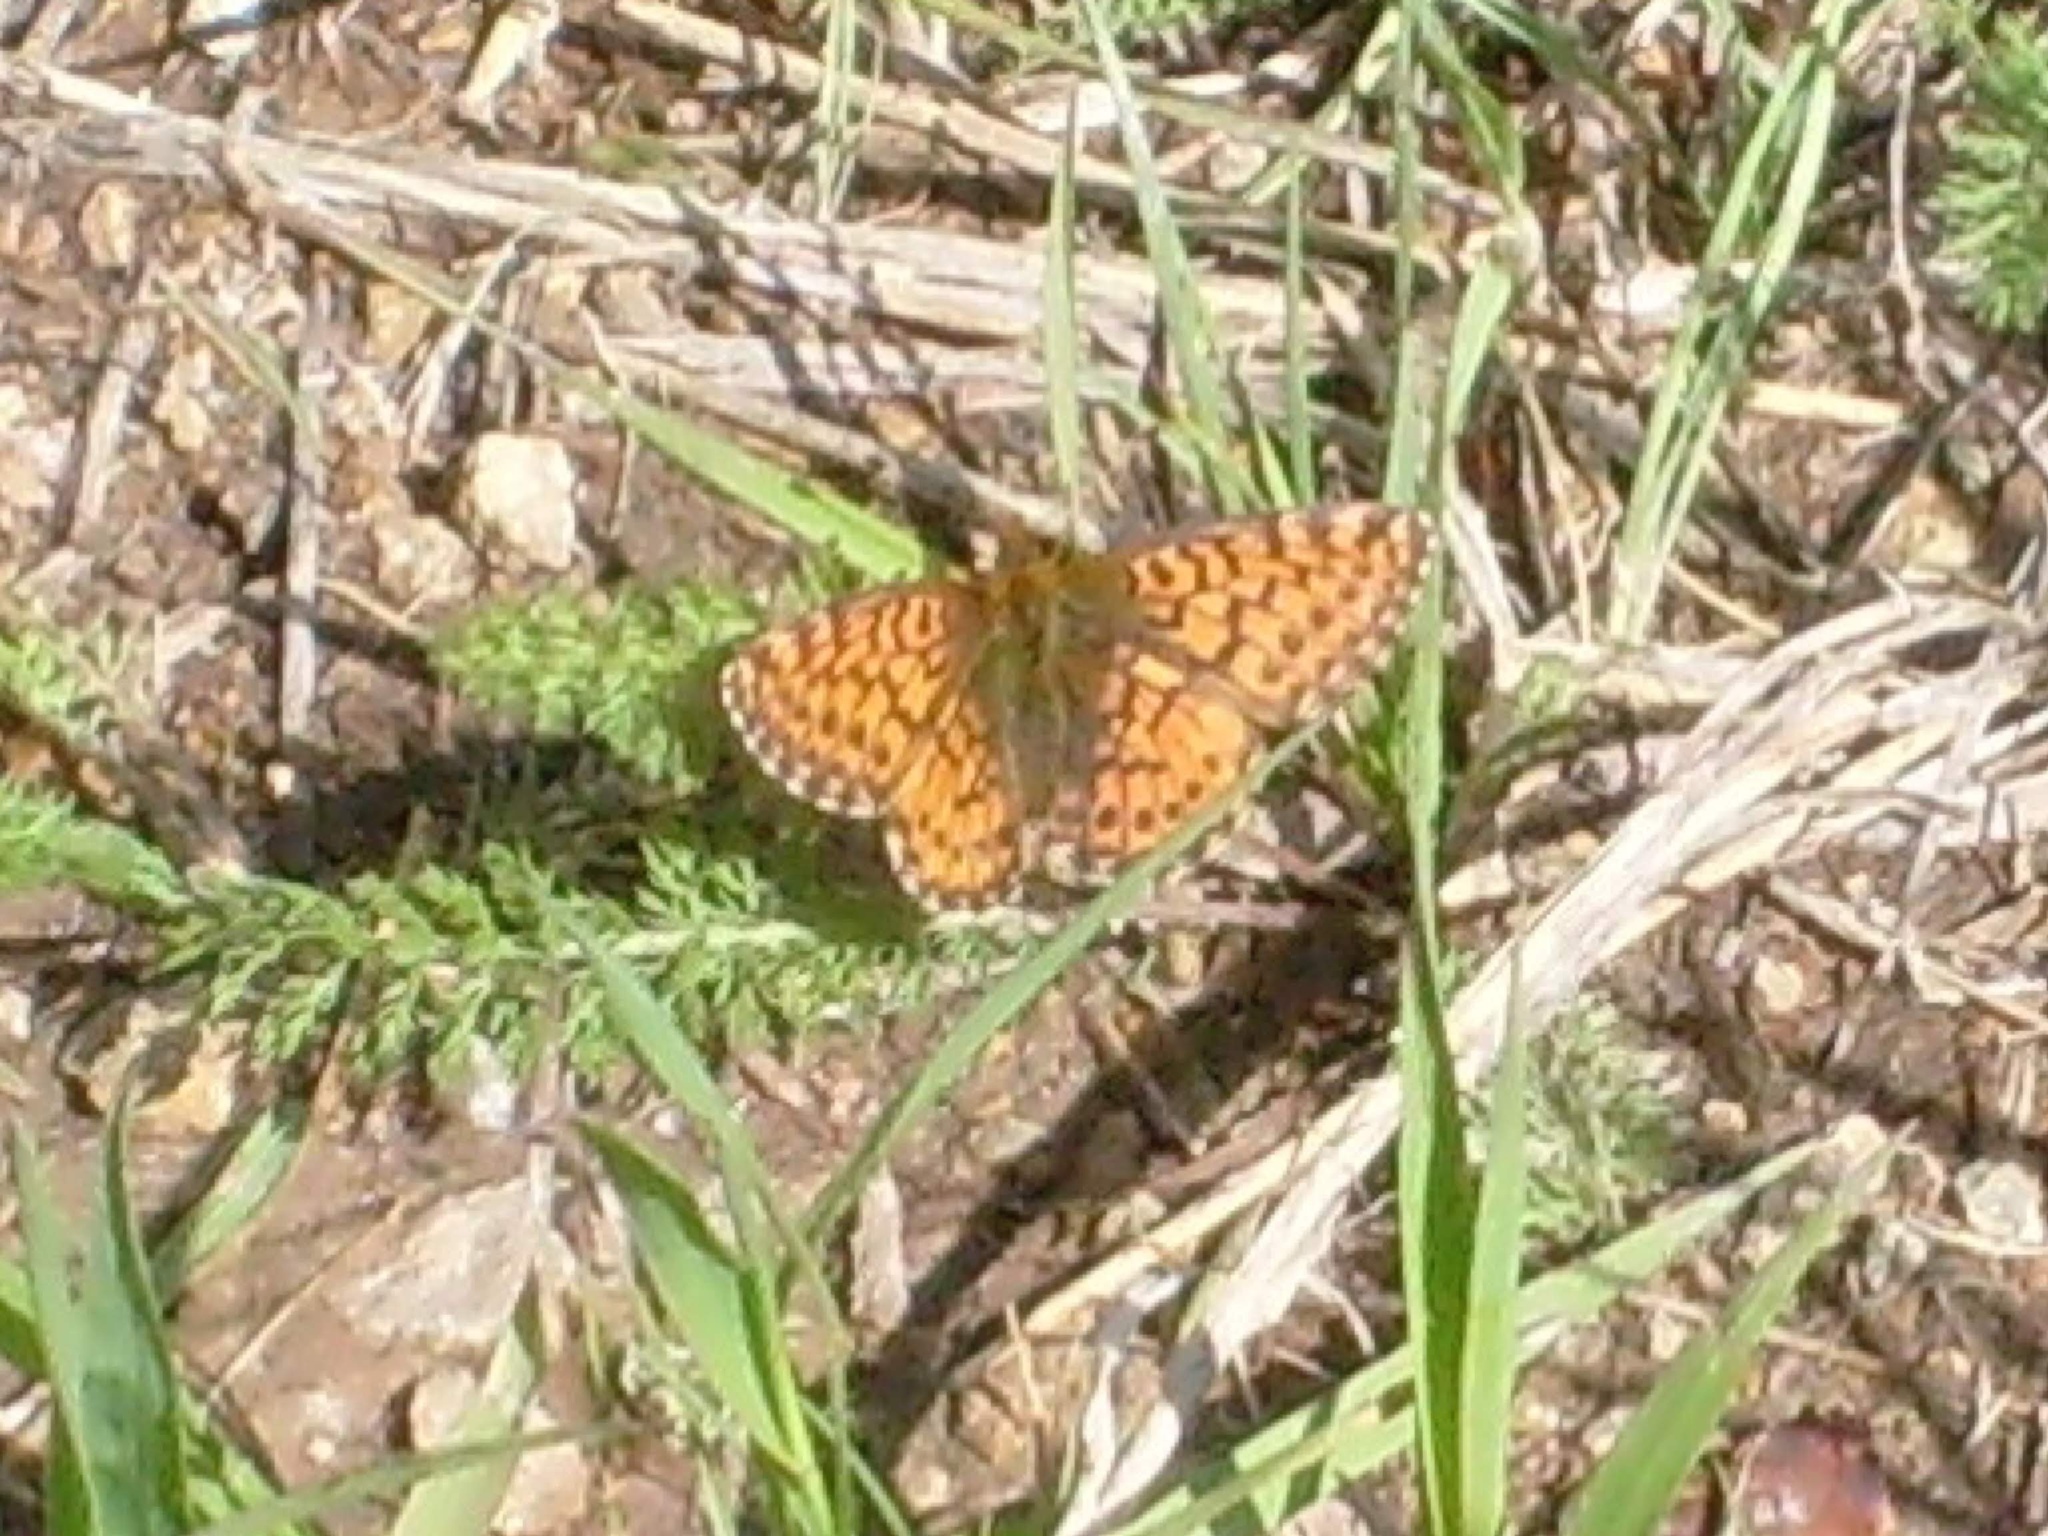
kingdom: Animalia
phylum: Arthropoda
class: Insecta
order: Lepidoptera
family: Nymphalidae
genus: Boloria
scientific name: Boloria chariclea
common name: Arctic fritillary
